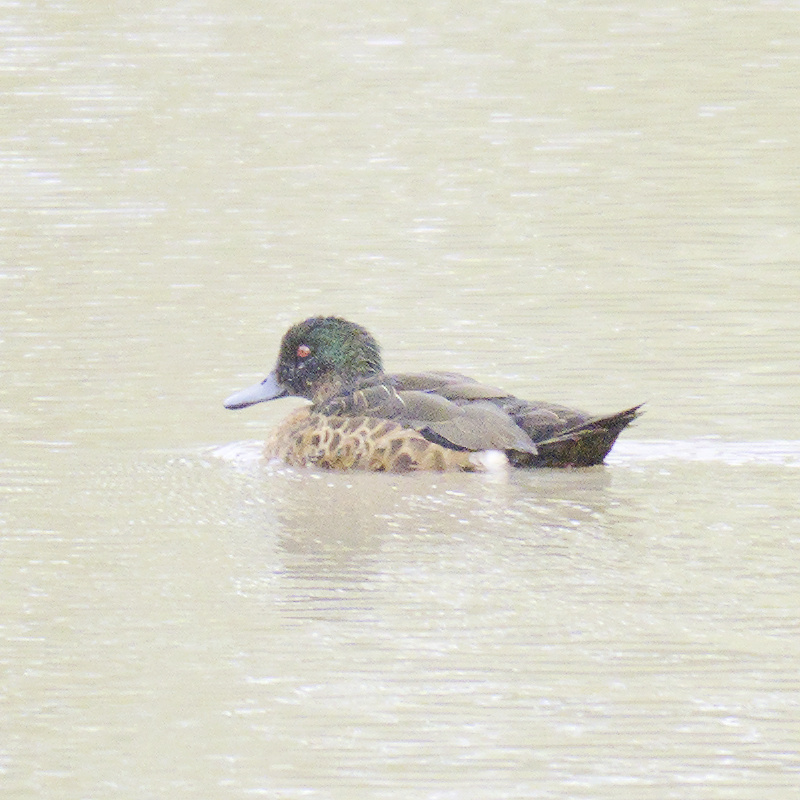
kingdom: Animalia
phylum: Chordata
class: Aves
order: Anseriformes
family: Anatidae
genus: Anas
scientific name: Anas castanea
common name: Chestnut teal
